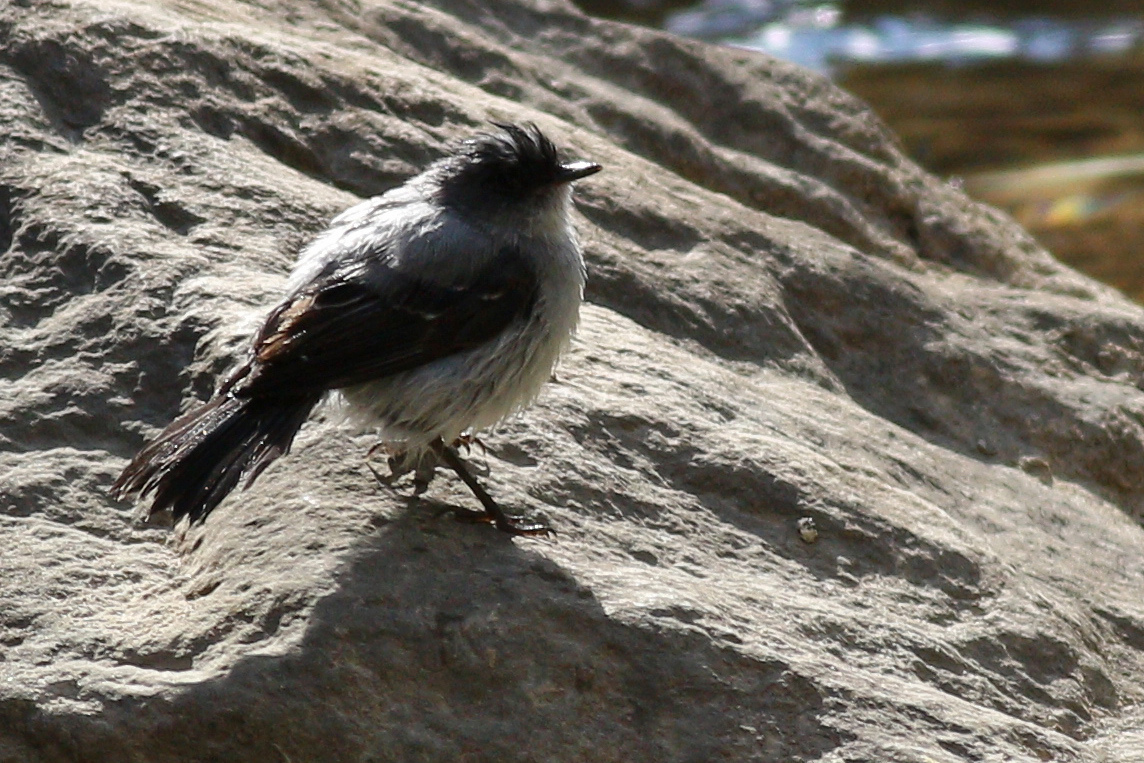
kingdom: Animalia
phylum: Chordata
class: Aves
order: Passeriformes
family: Tyrannidae
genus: Serpophaga
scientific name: Serpophaga cinerea
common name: Torrent tyrannulet
